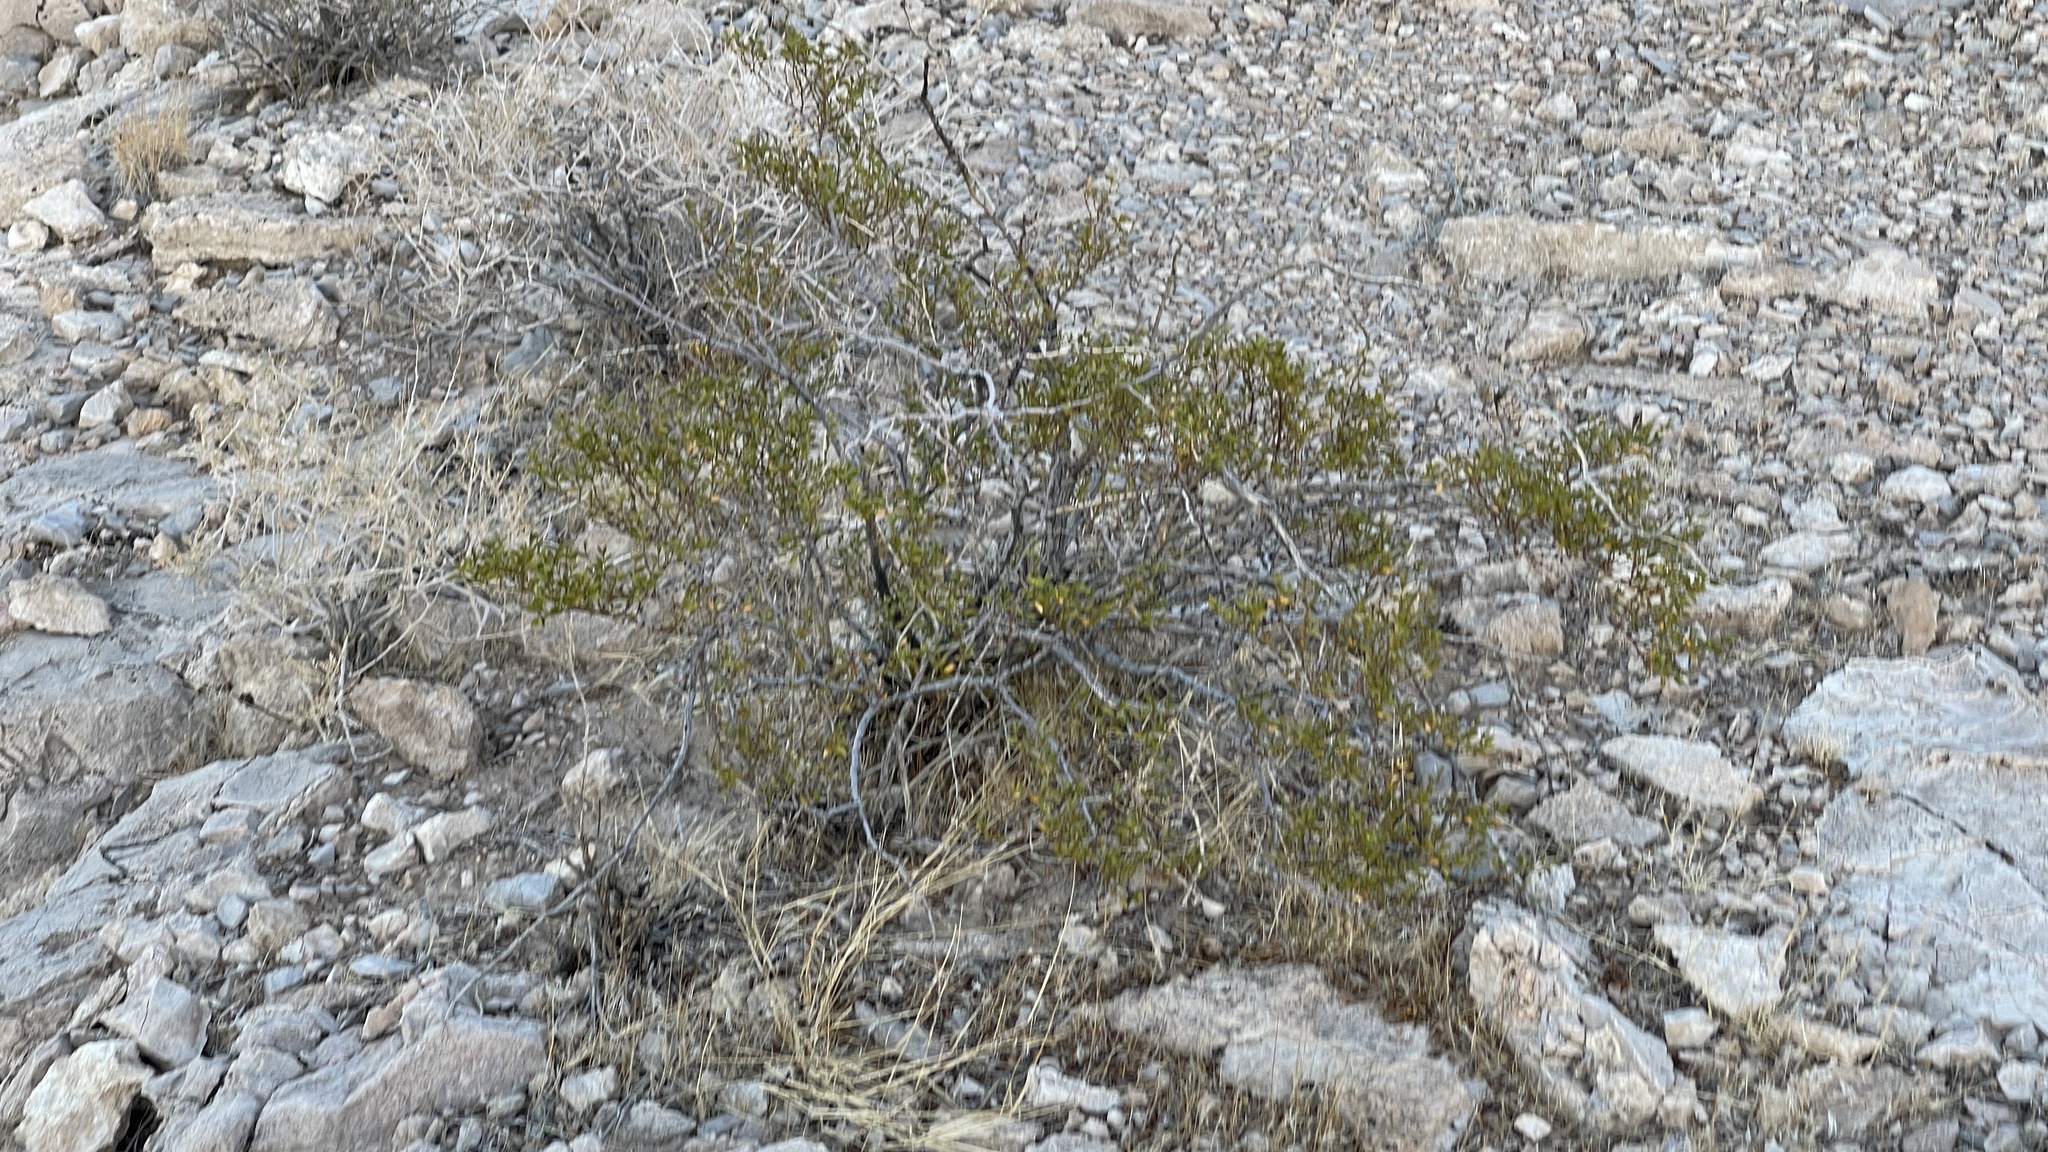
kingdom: Plantae
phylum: Tracheophyta
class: Magnoliopsida
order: Zygophyllales
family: Zygophyllaceae
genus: Larrea
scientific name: Larrea tridentata
